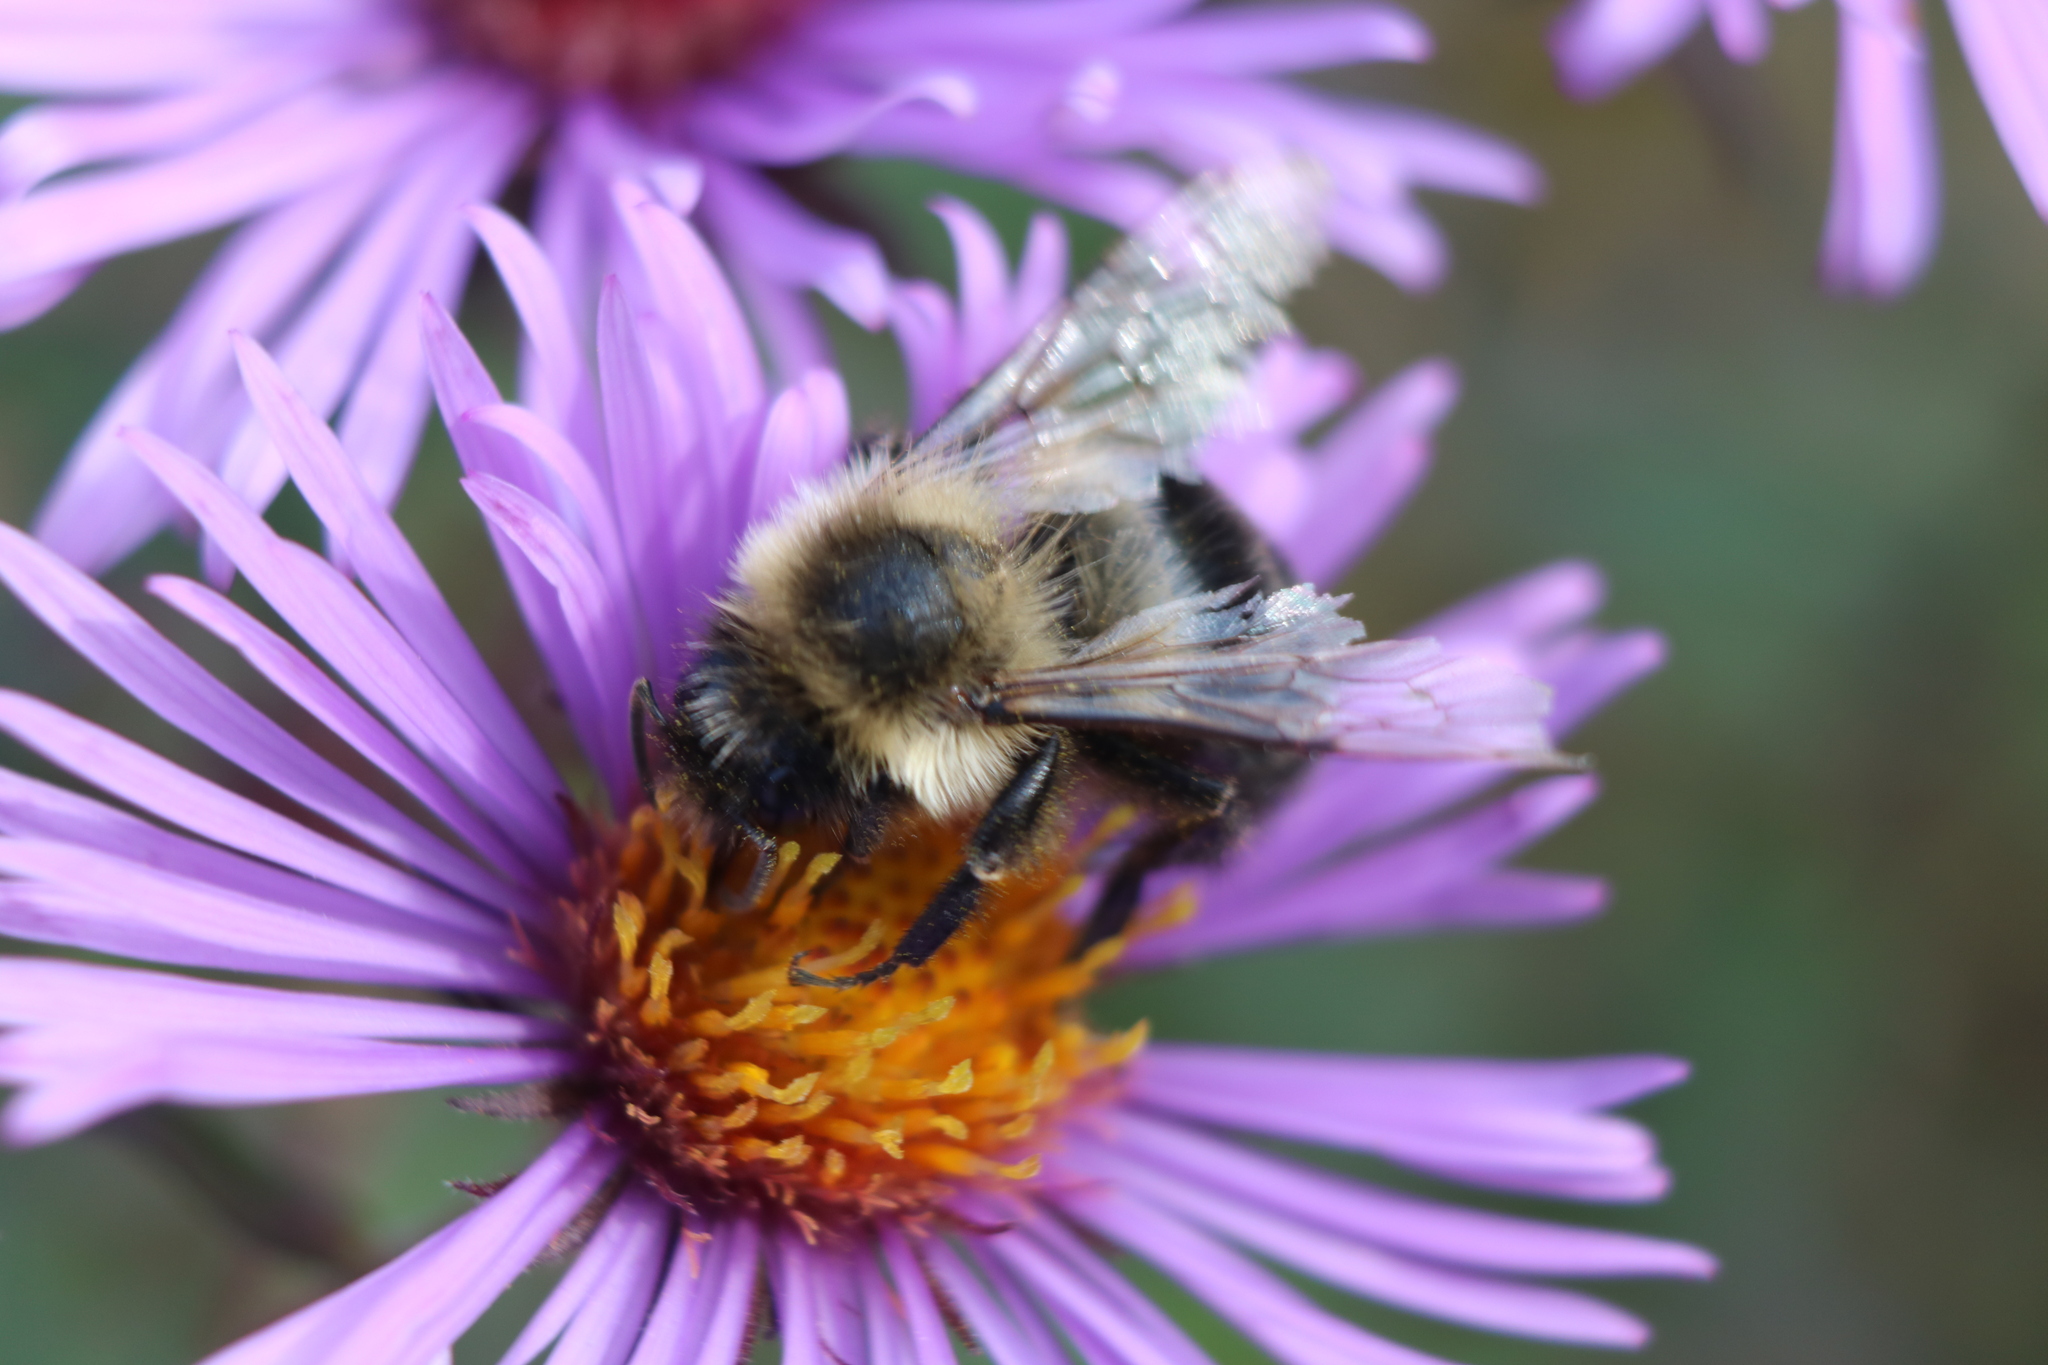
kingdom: Animalia
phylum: Arthropoda
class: Insecta
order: Hymenoptera
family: Apidae
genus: Bombus
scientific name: Bombus impatiens
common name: Common eastern bumble bee
